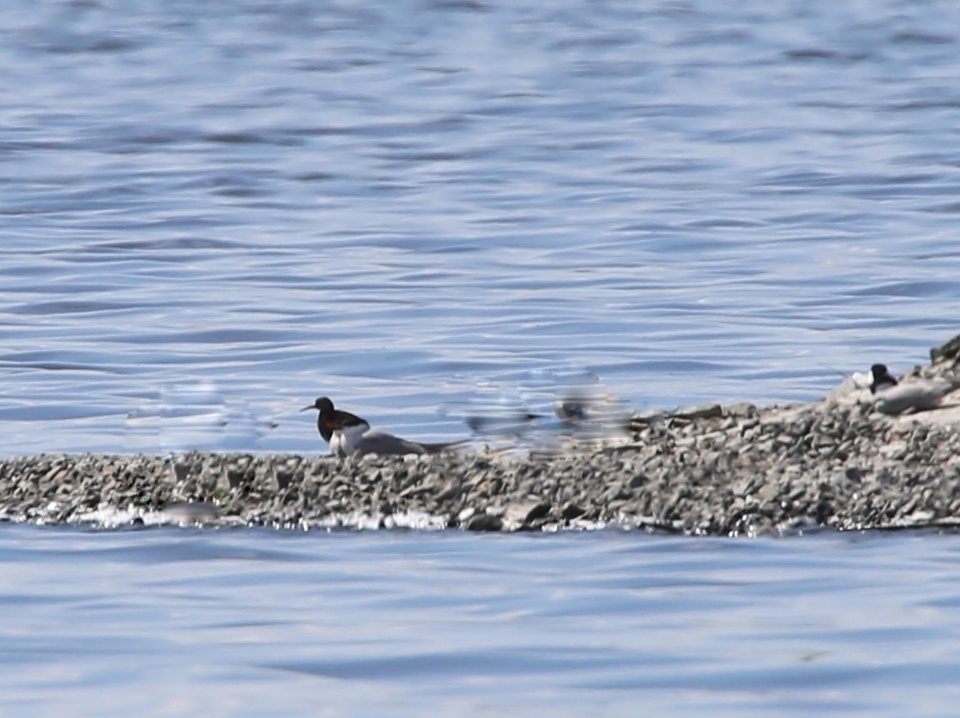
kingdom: Animalia
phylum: Chordata
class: Aves
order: Charadriiformes
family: Scolopacidae
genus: Calidris
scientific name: Calidris pugnax
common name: Ruff
